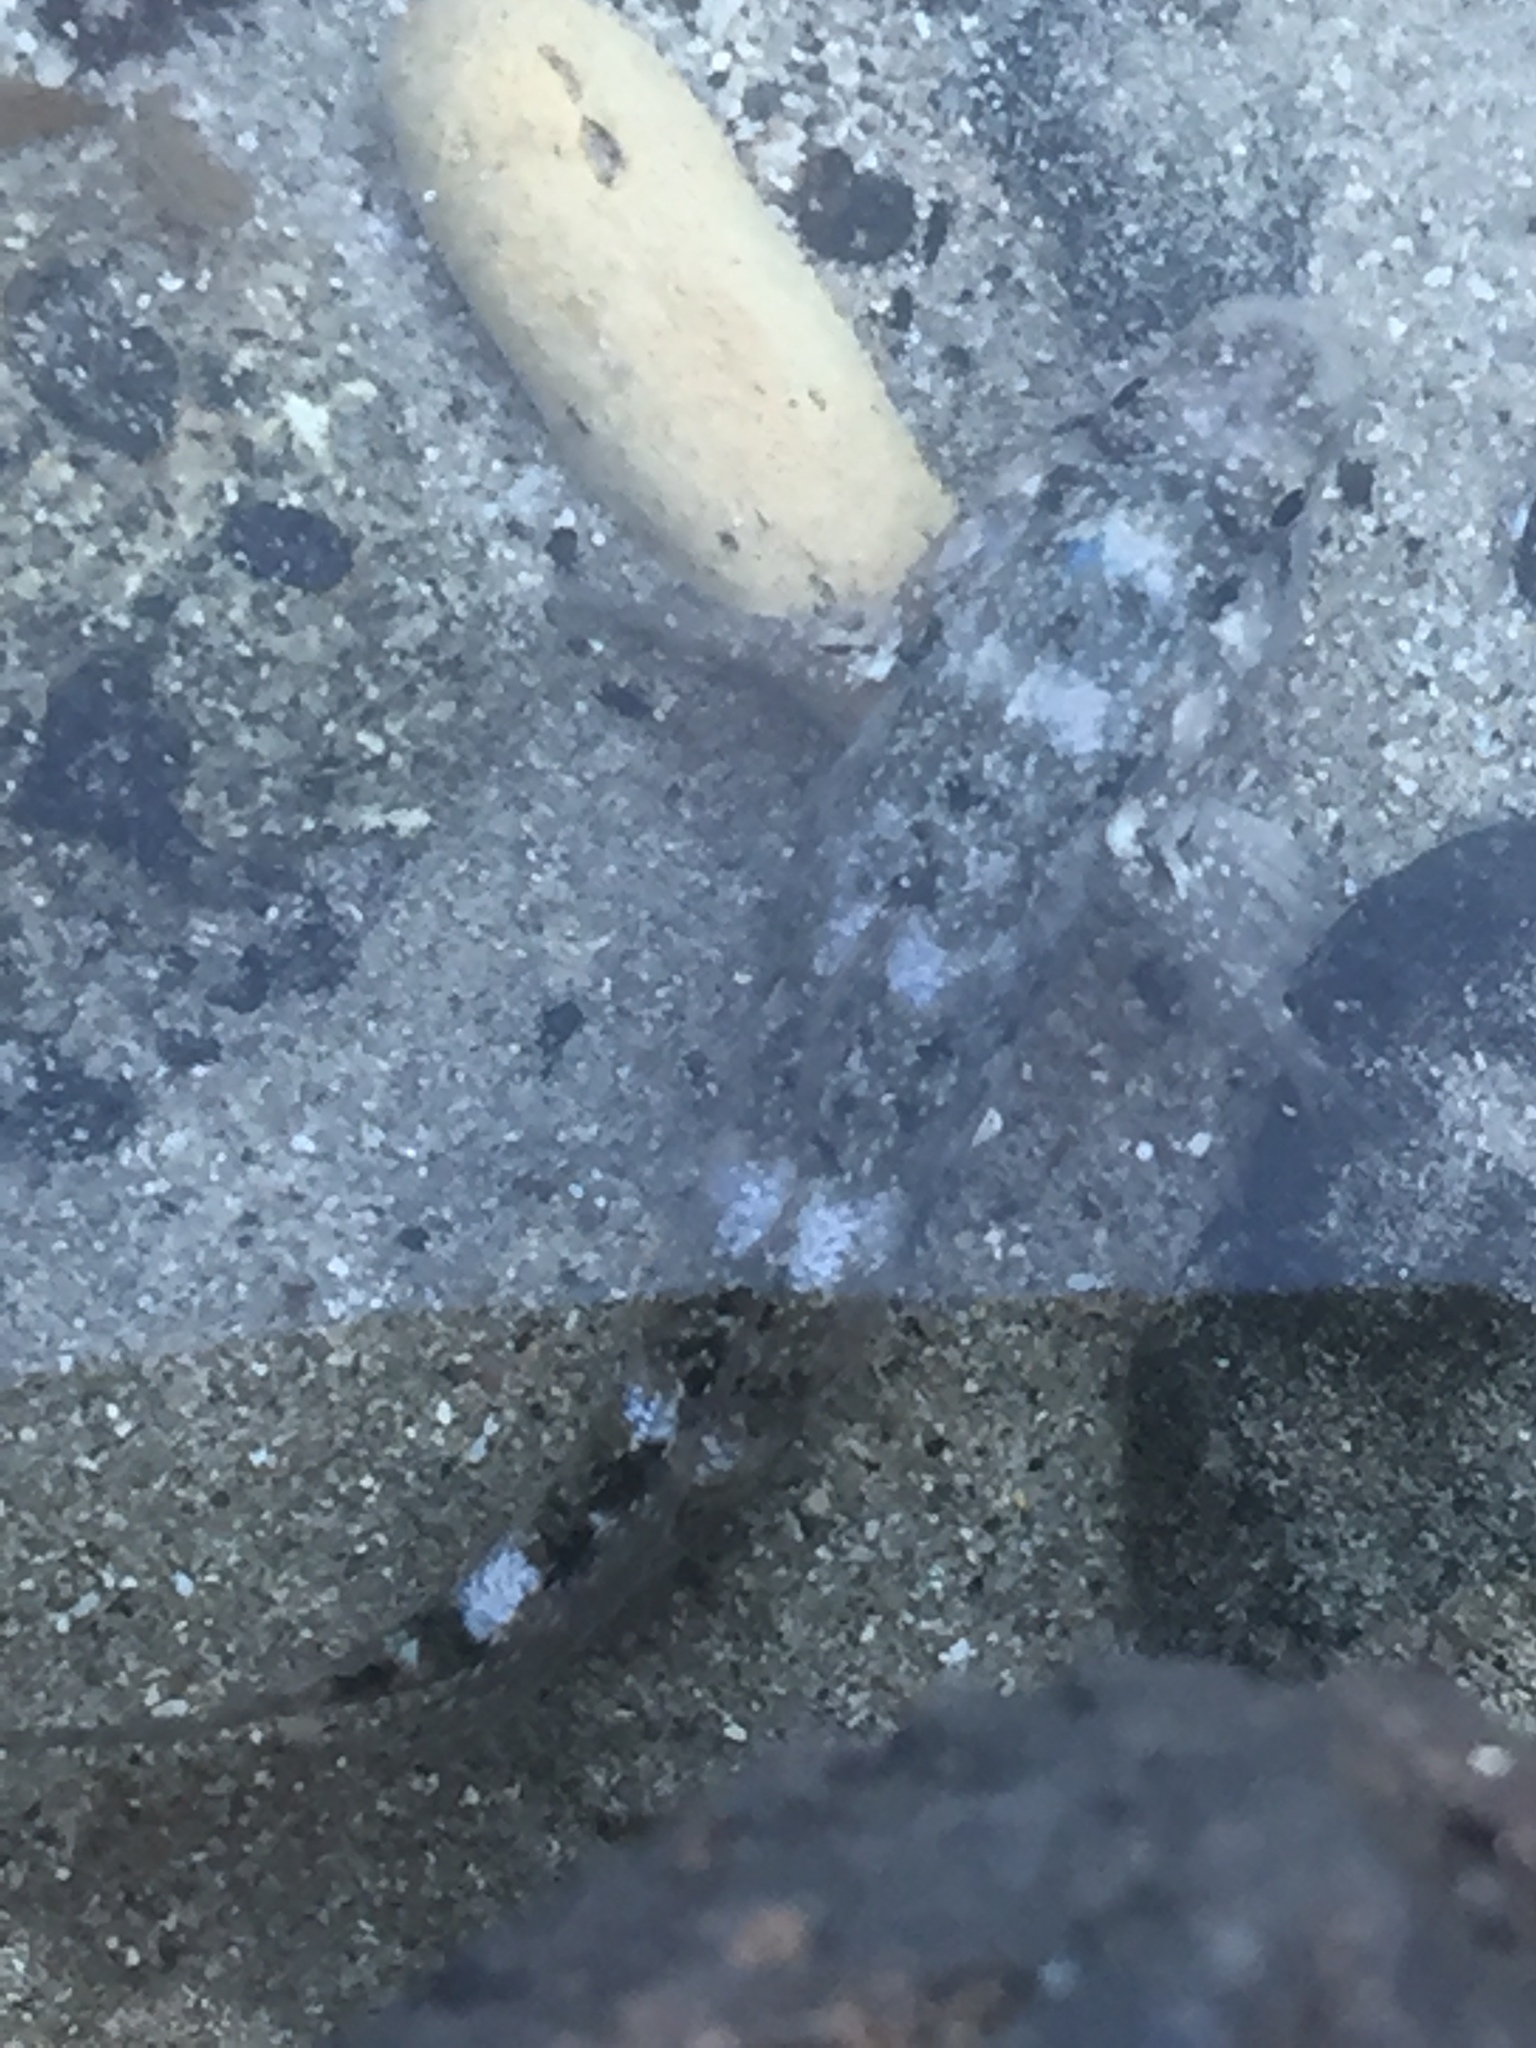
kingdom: Animalia
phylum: Chordata
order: Perciformes
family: Gobiidae
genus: Mauligobius
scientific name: Mauligobius maderensis
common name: Rock goby
